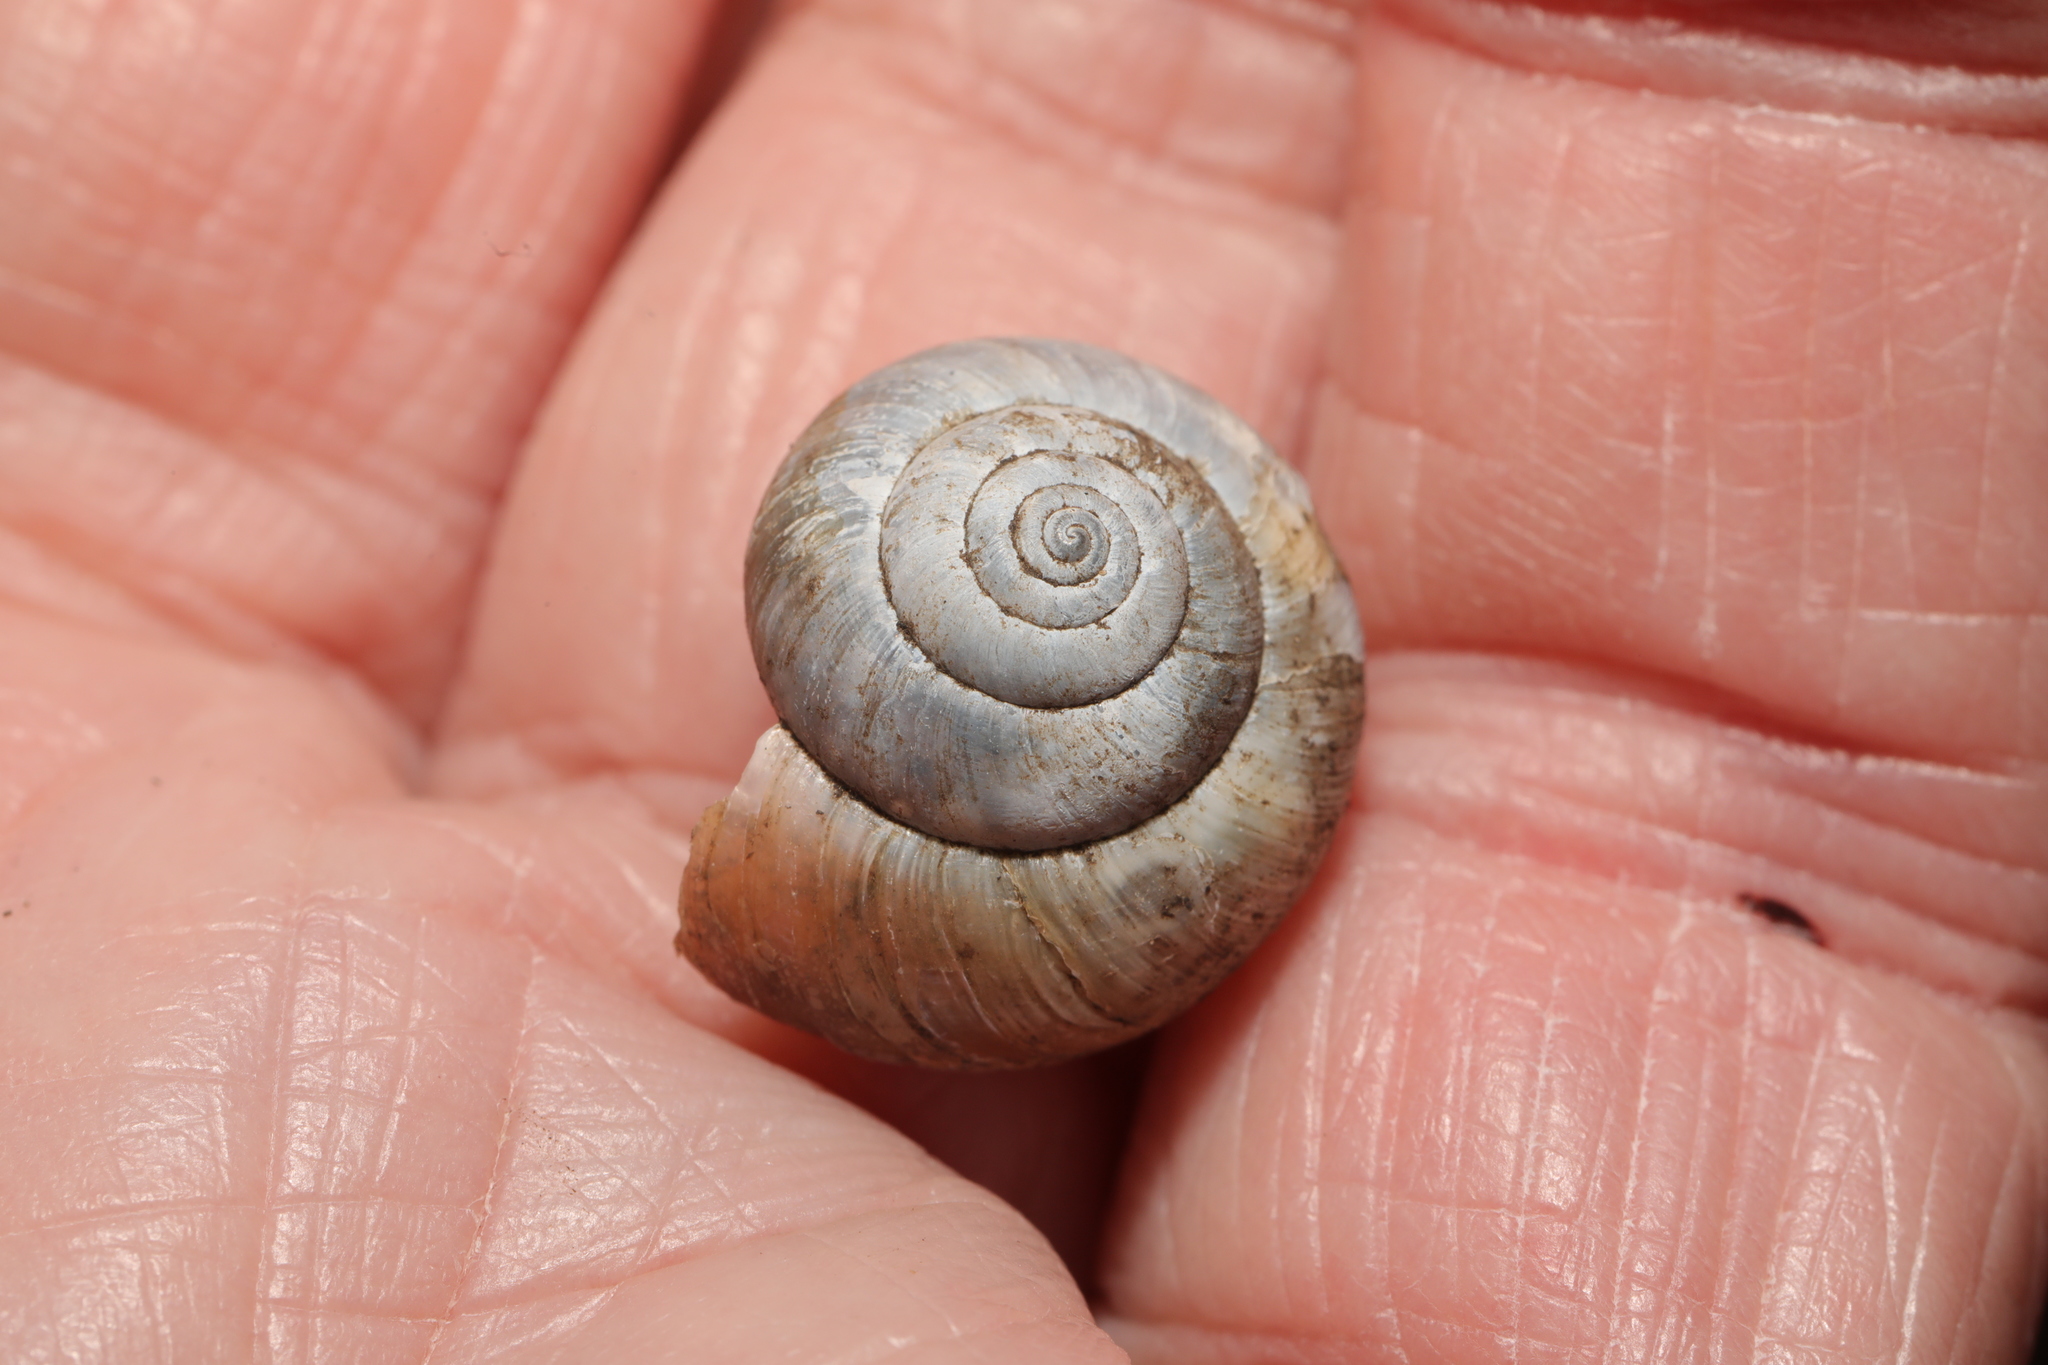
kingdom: Animalia
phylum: Mollusca
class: Gastropoda
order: Stylommatophora
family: Hygromiidae
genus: Monacha
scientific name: Monacha cantiana
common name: Kentish snail
